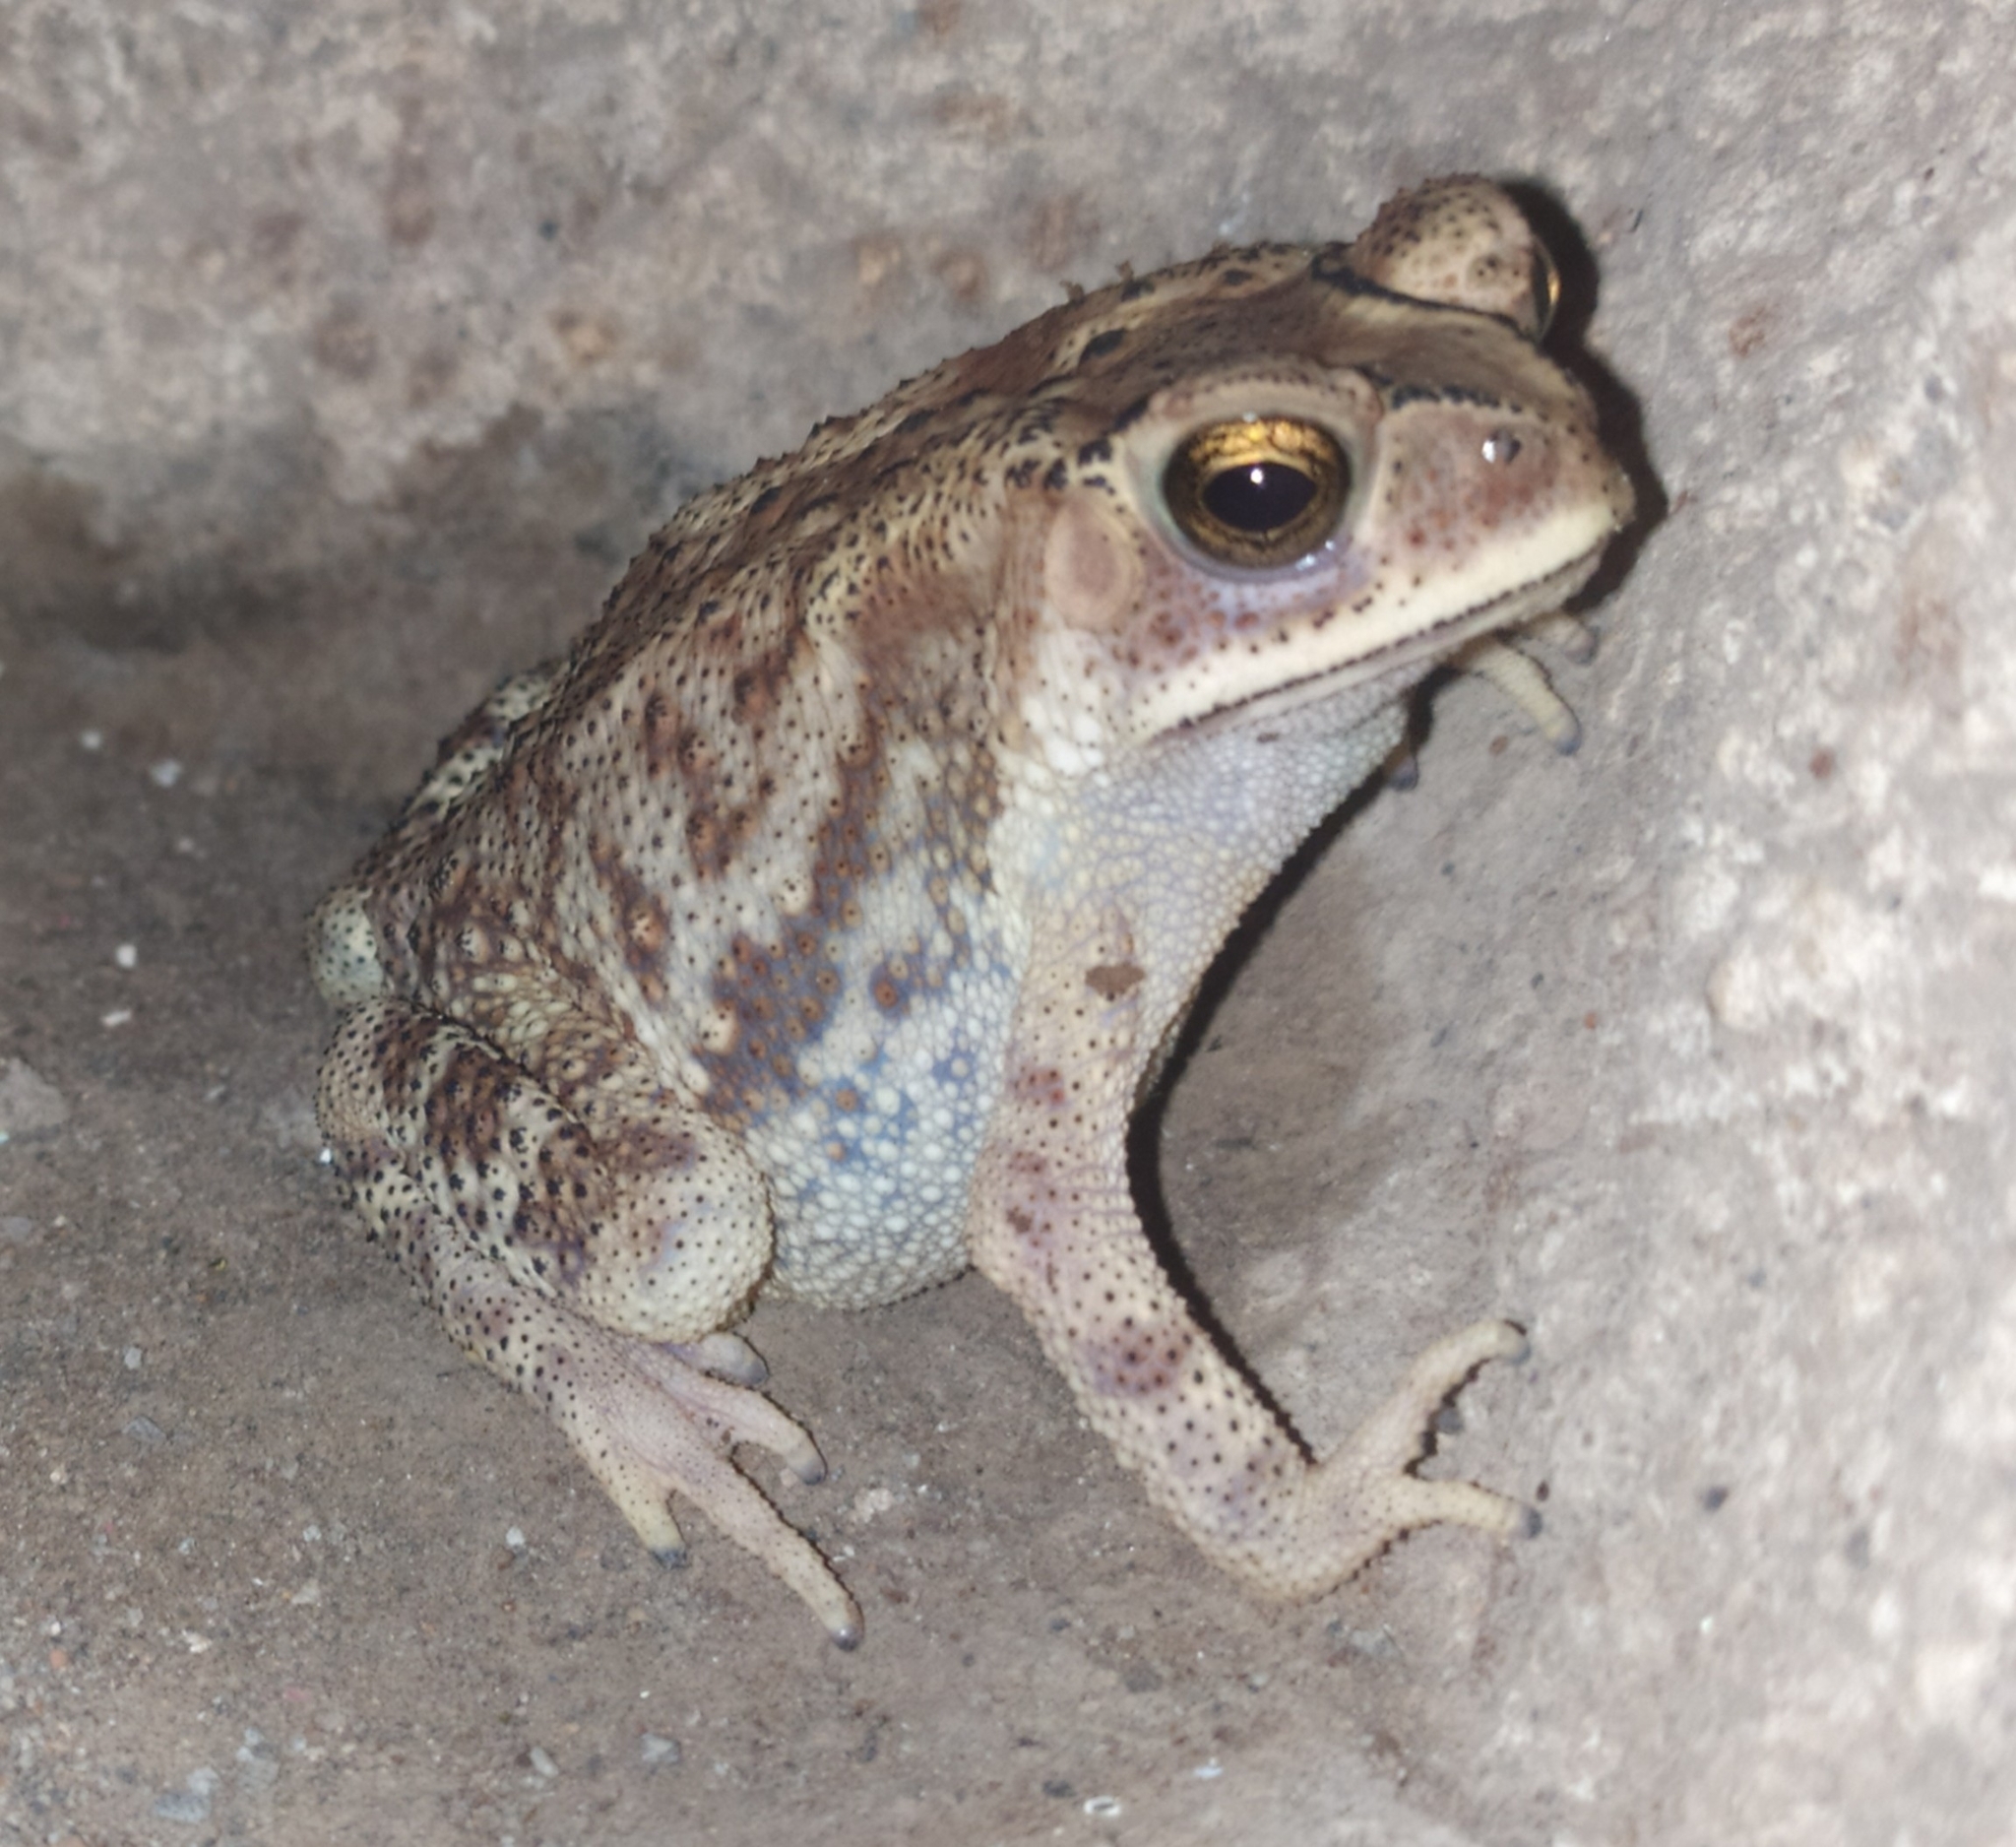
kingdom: Animalia
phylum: Chordata
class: Amphibia
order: Anura
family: Bufonidae
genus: Duttaphrynus
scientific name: Duttaphrynus melanostictus
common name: Common sunda toad
